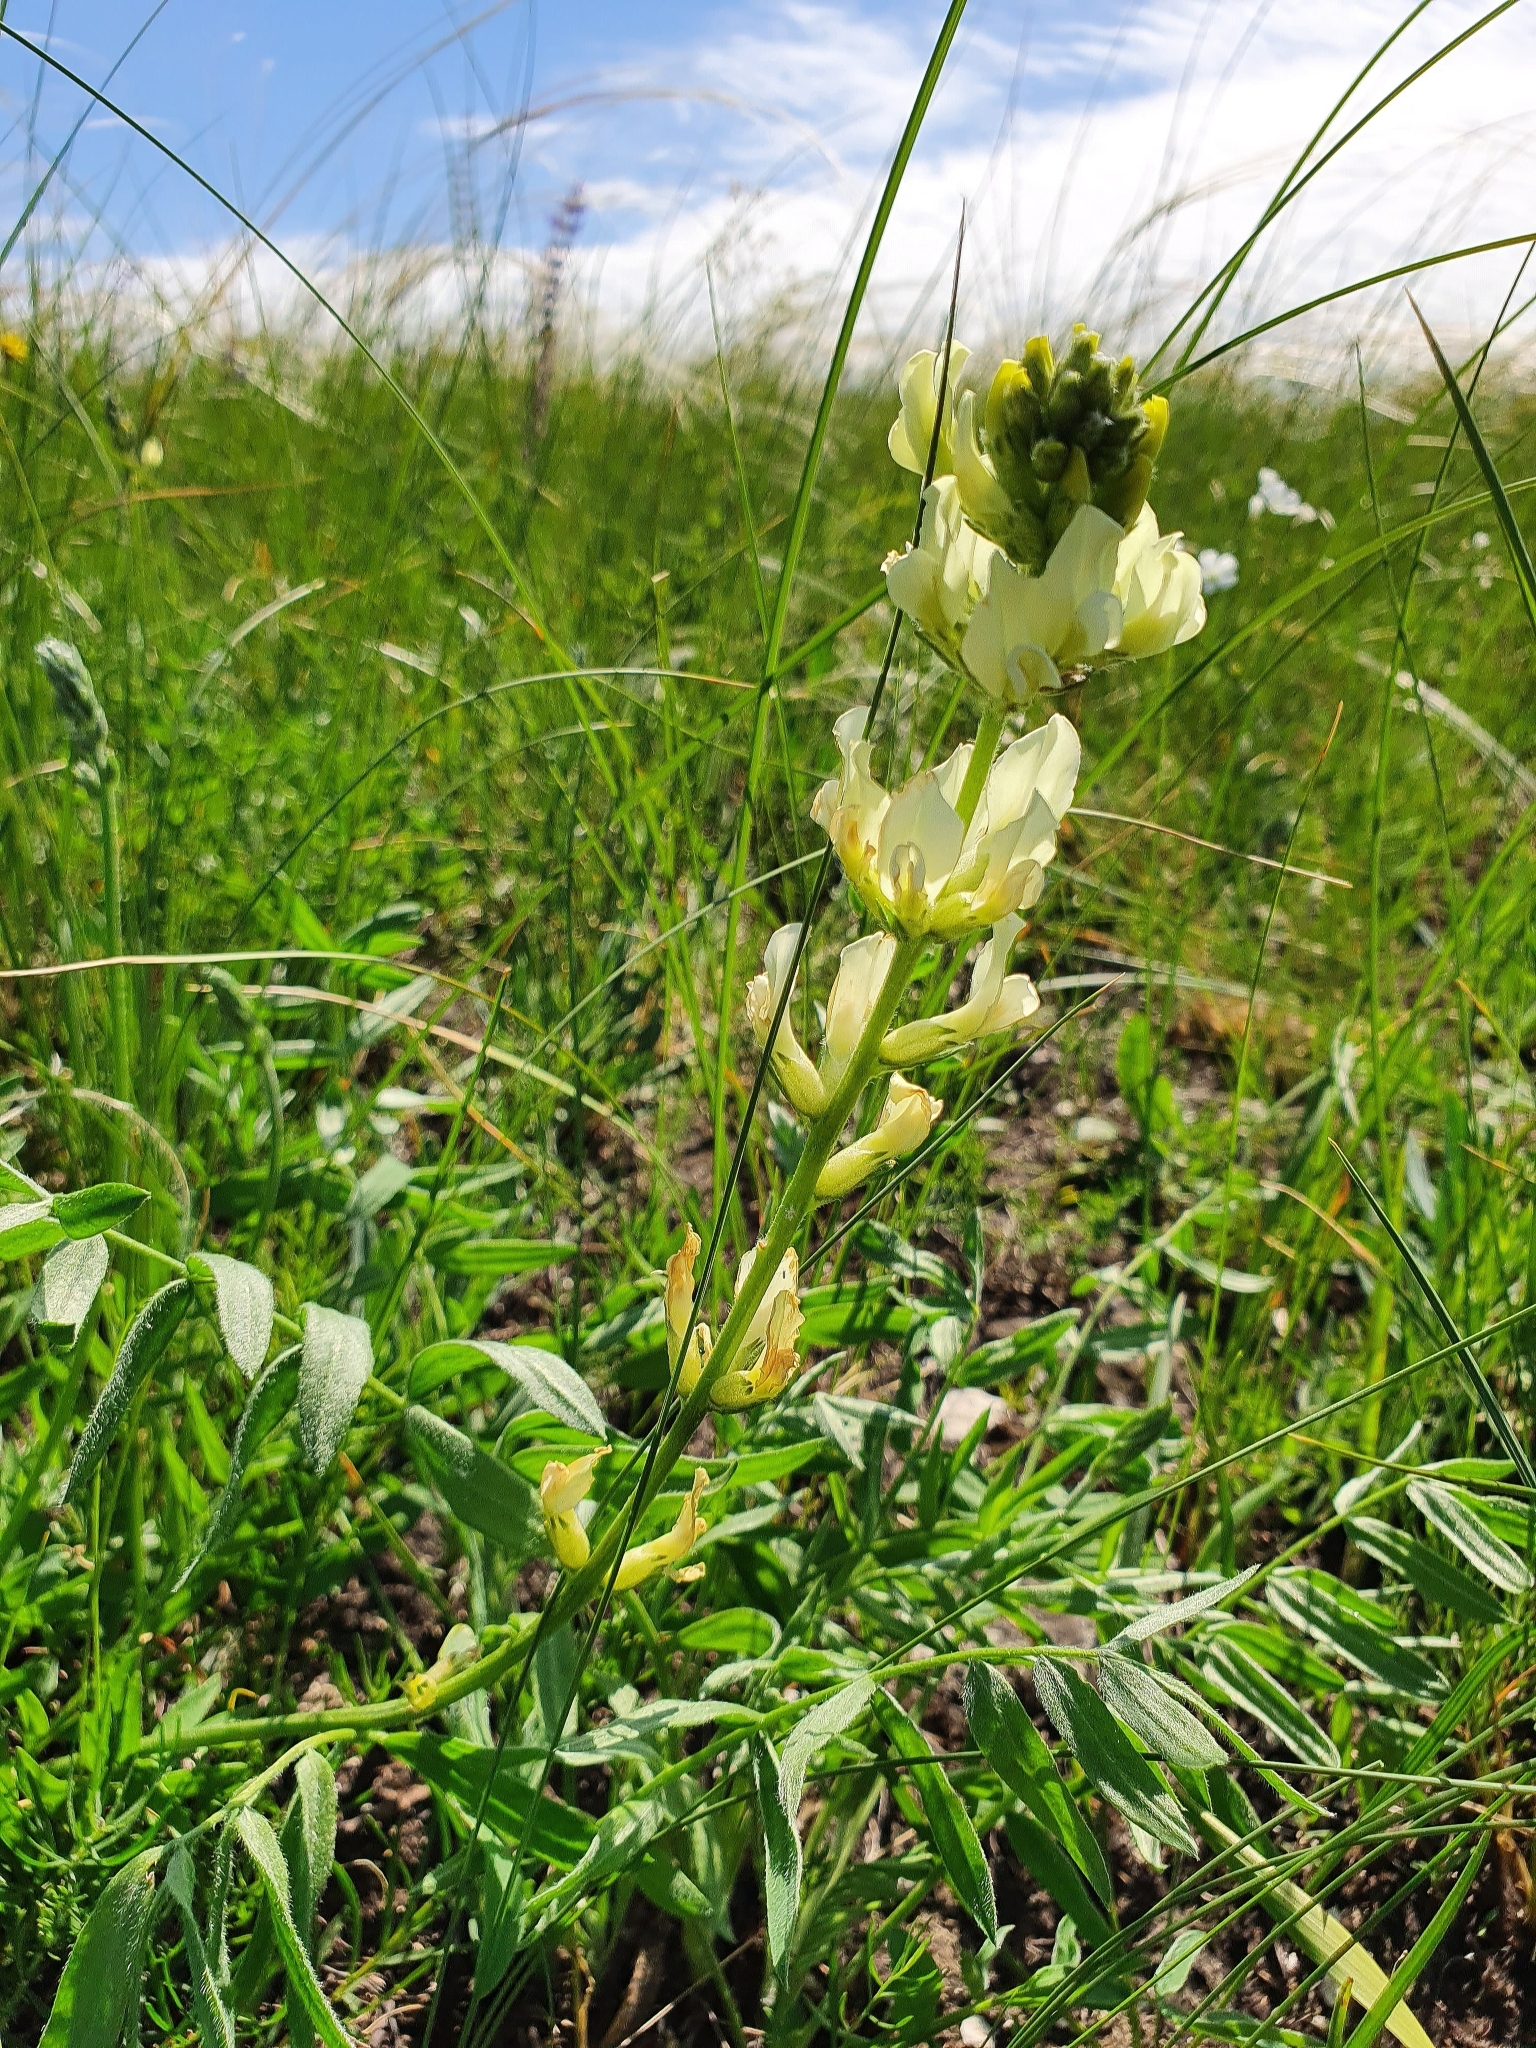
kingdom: Plantae
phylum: Tracheophyta
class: Magnoliopsida
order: Fabales
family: Fabaceae
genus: Oxytropis
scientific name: Oxytropis hippolyti
